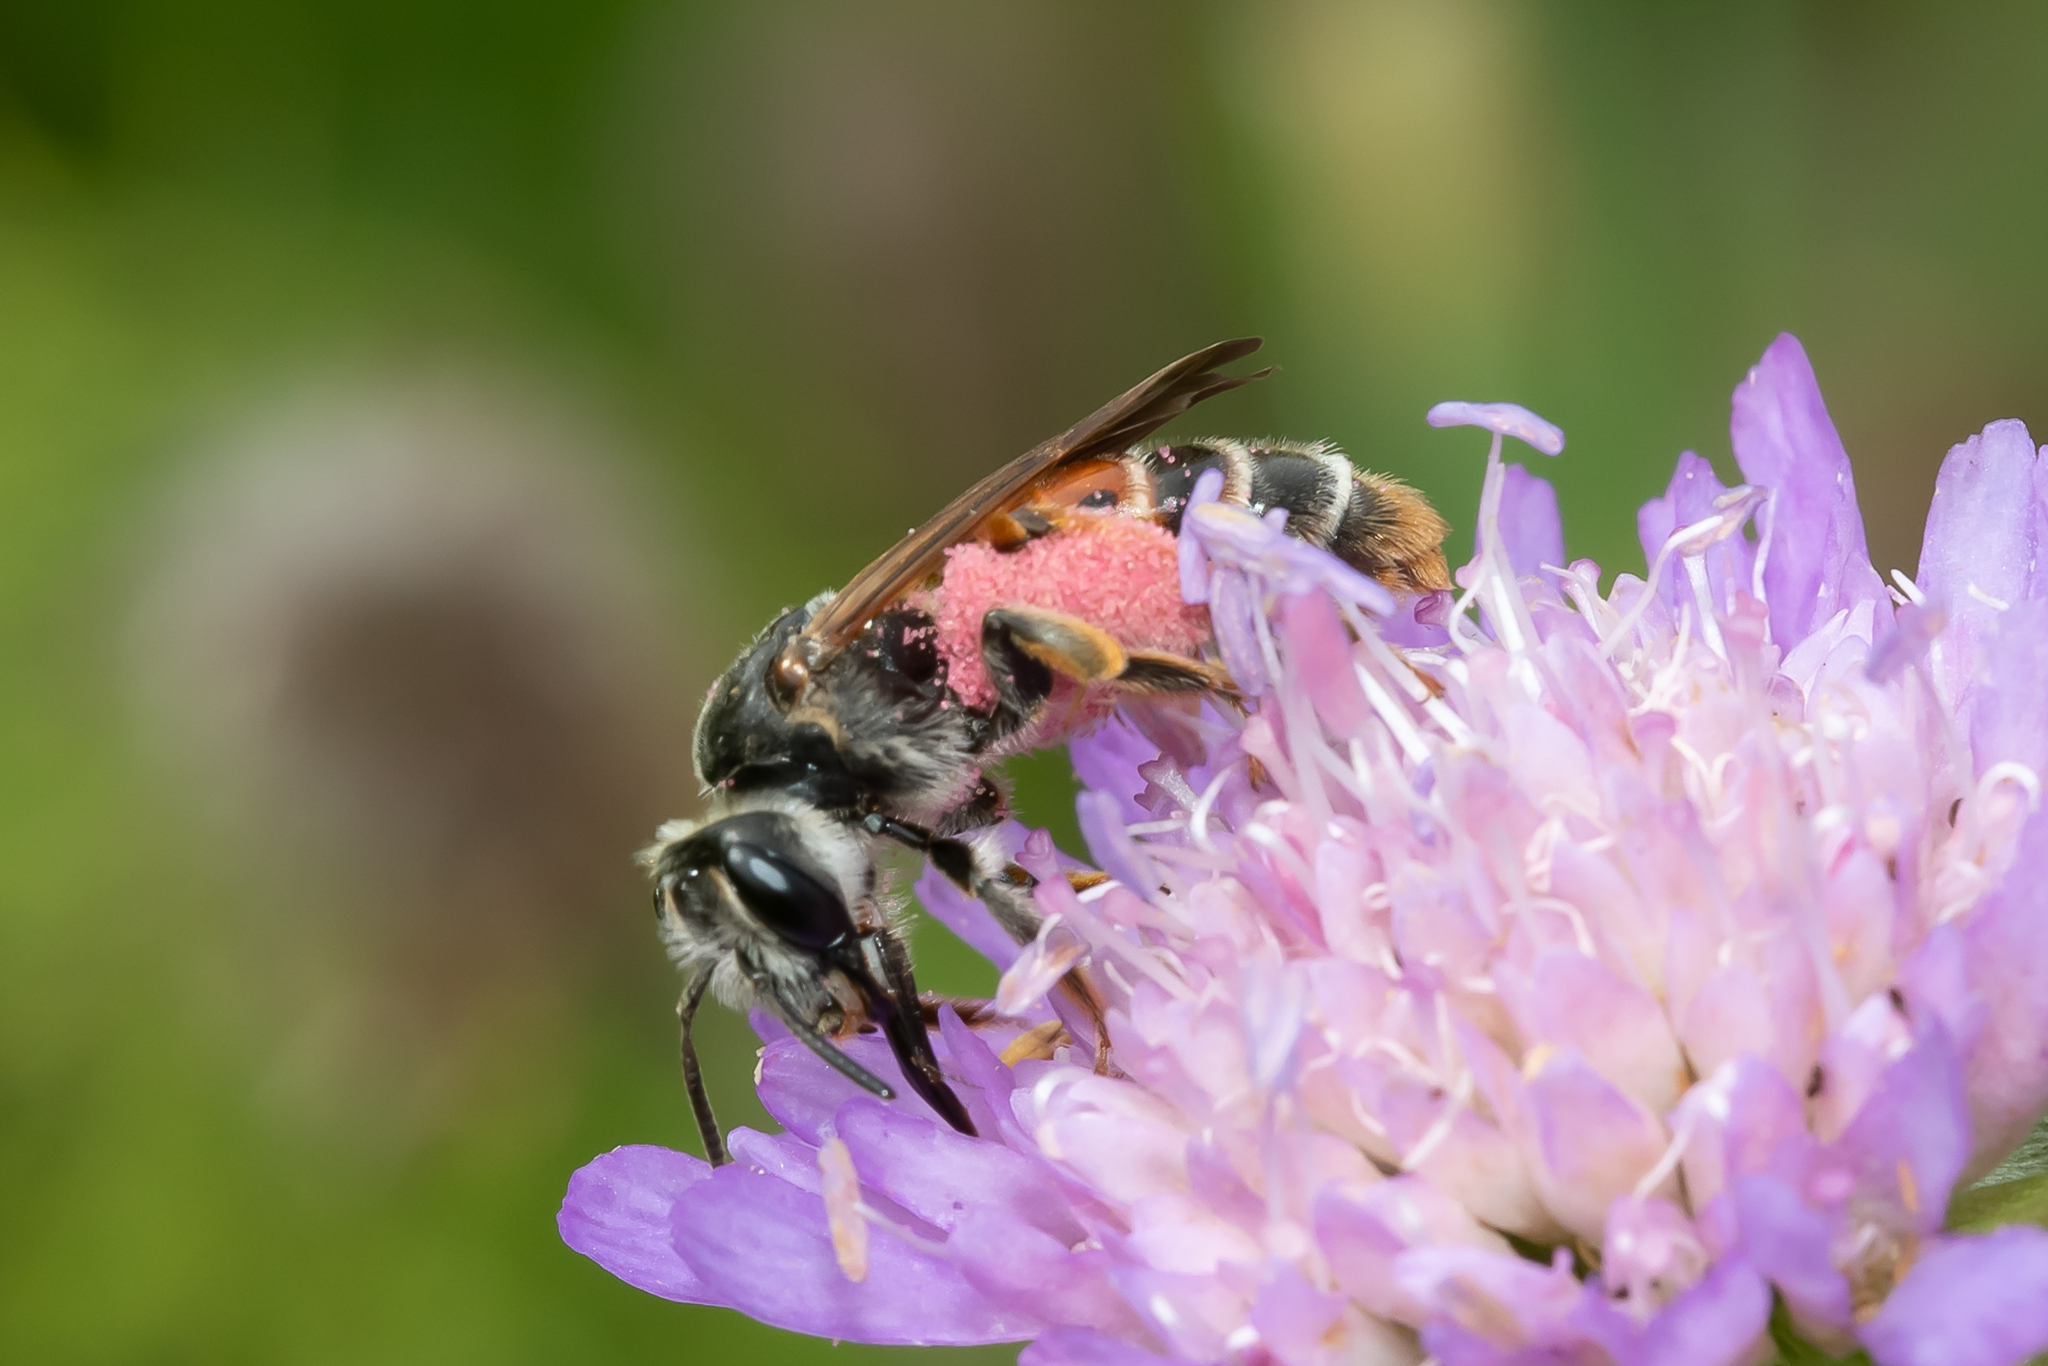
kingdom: Animalia
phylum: Arthropoda
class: Insecta
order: Hymenoptera
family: Andrenidae
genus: Andrena
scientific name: Andrena hattorfiana
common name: Large scabious mining bee
